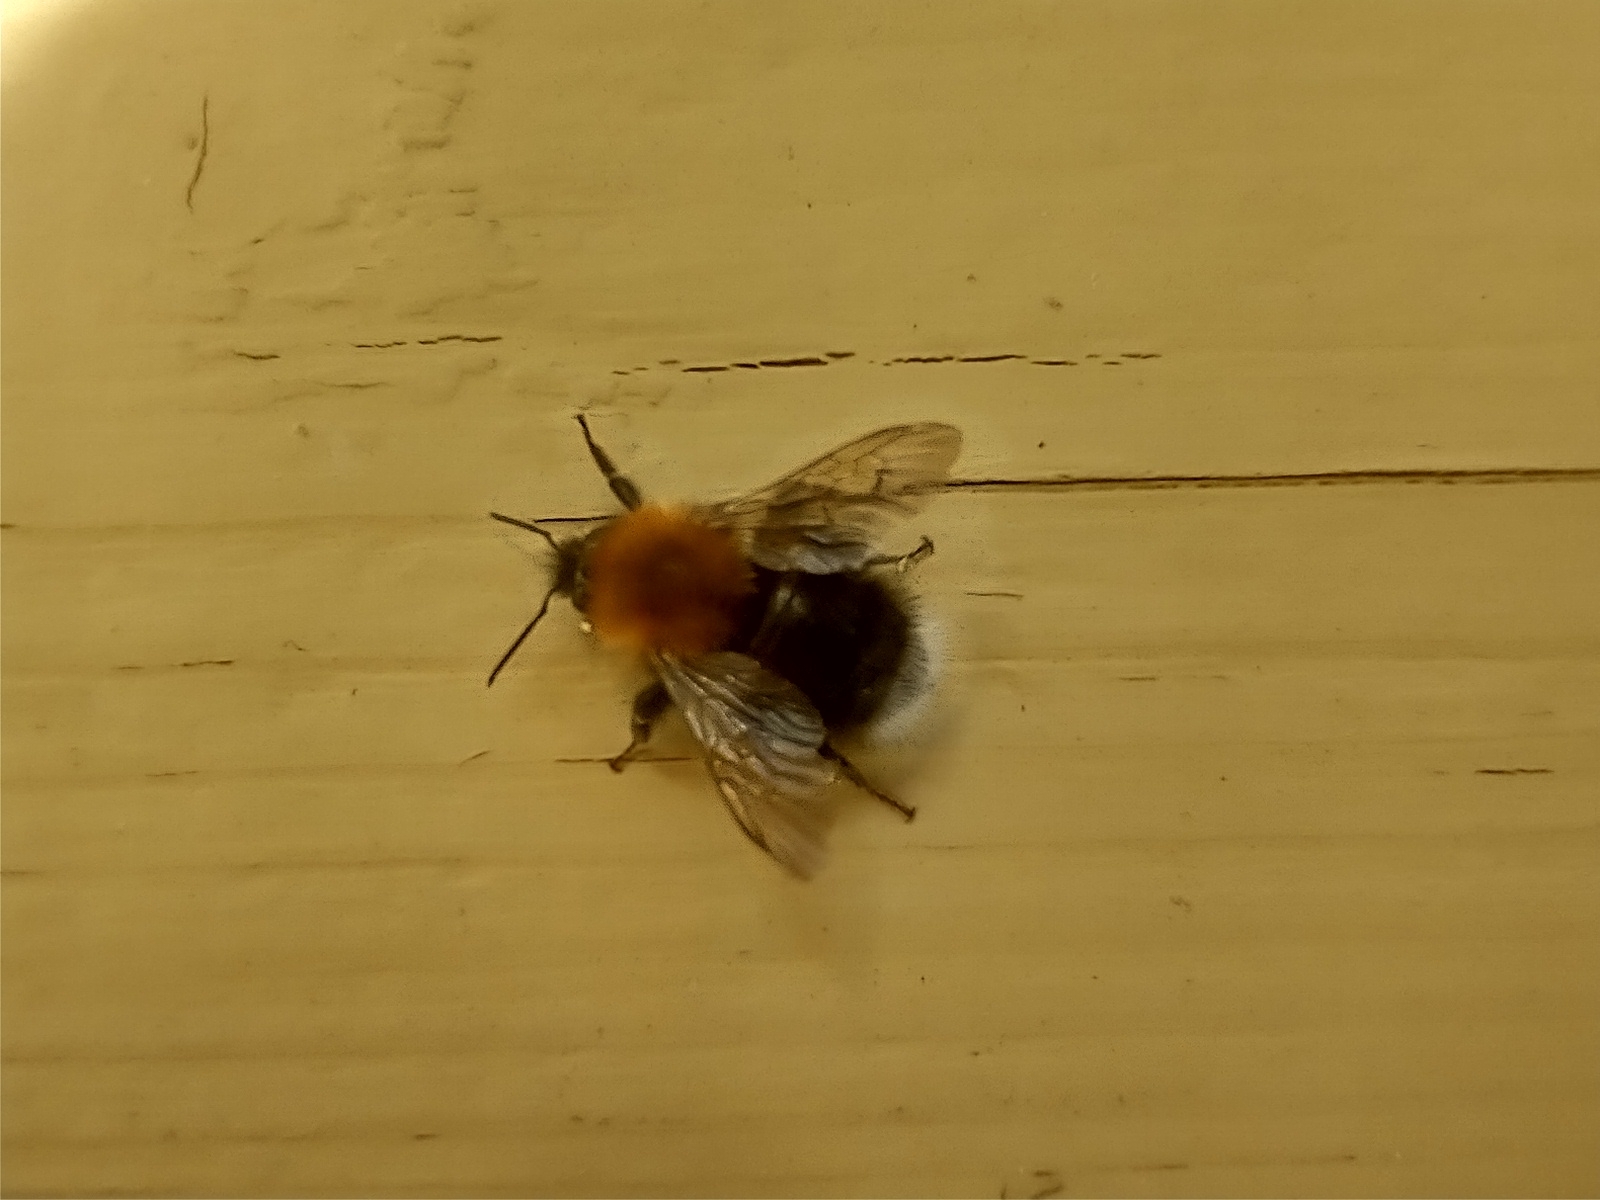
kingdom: Animalia
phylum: Arthropoda
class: Insecta
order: Hymenoptera
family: Apidae
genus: Bombus
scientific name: Bombus hypnorum
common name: New garden bumblebee
